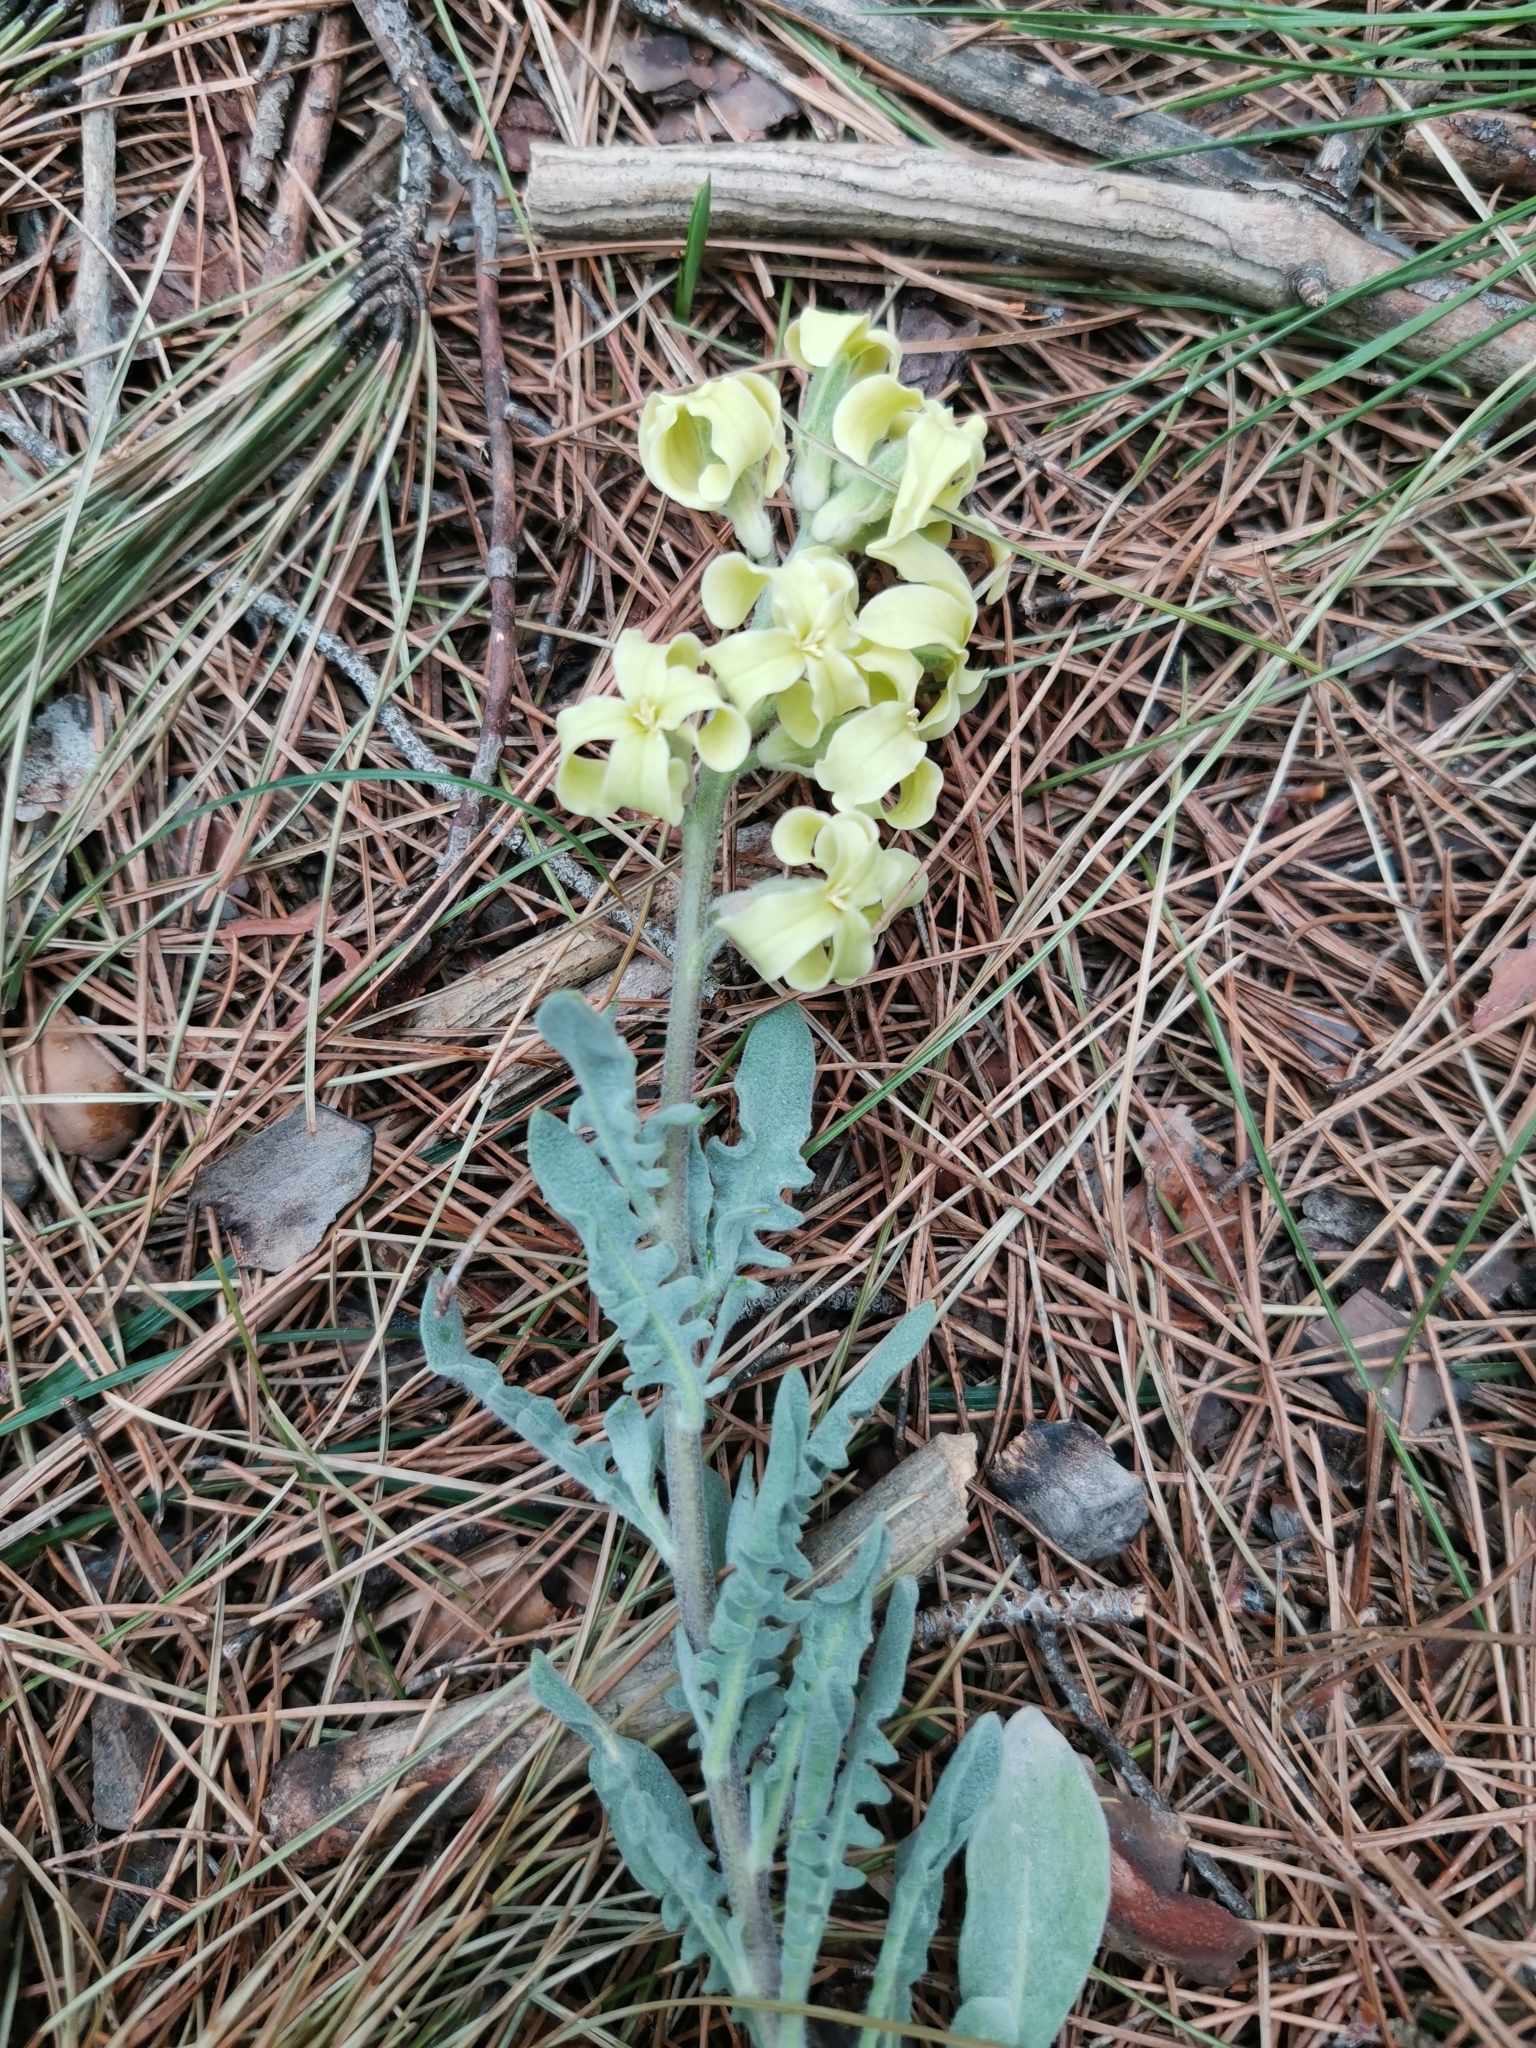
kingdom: Plantae
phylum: Tracheophyta
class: Magnoliopsida
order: Brassicales
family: Brassicaceae
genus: Matthiola
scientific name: Matthiola odoratissima
